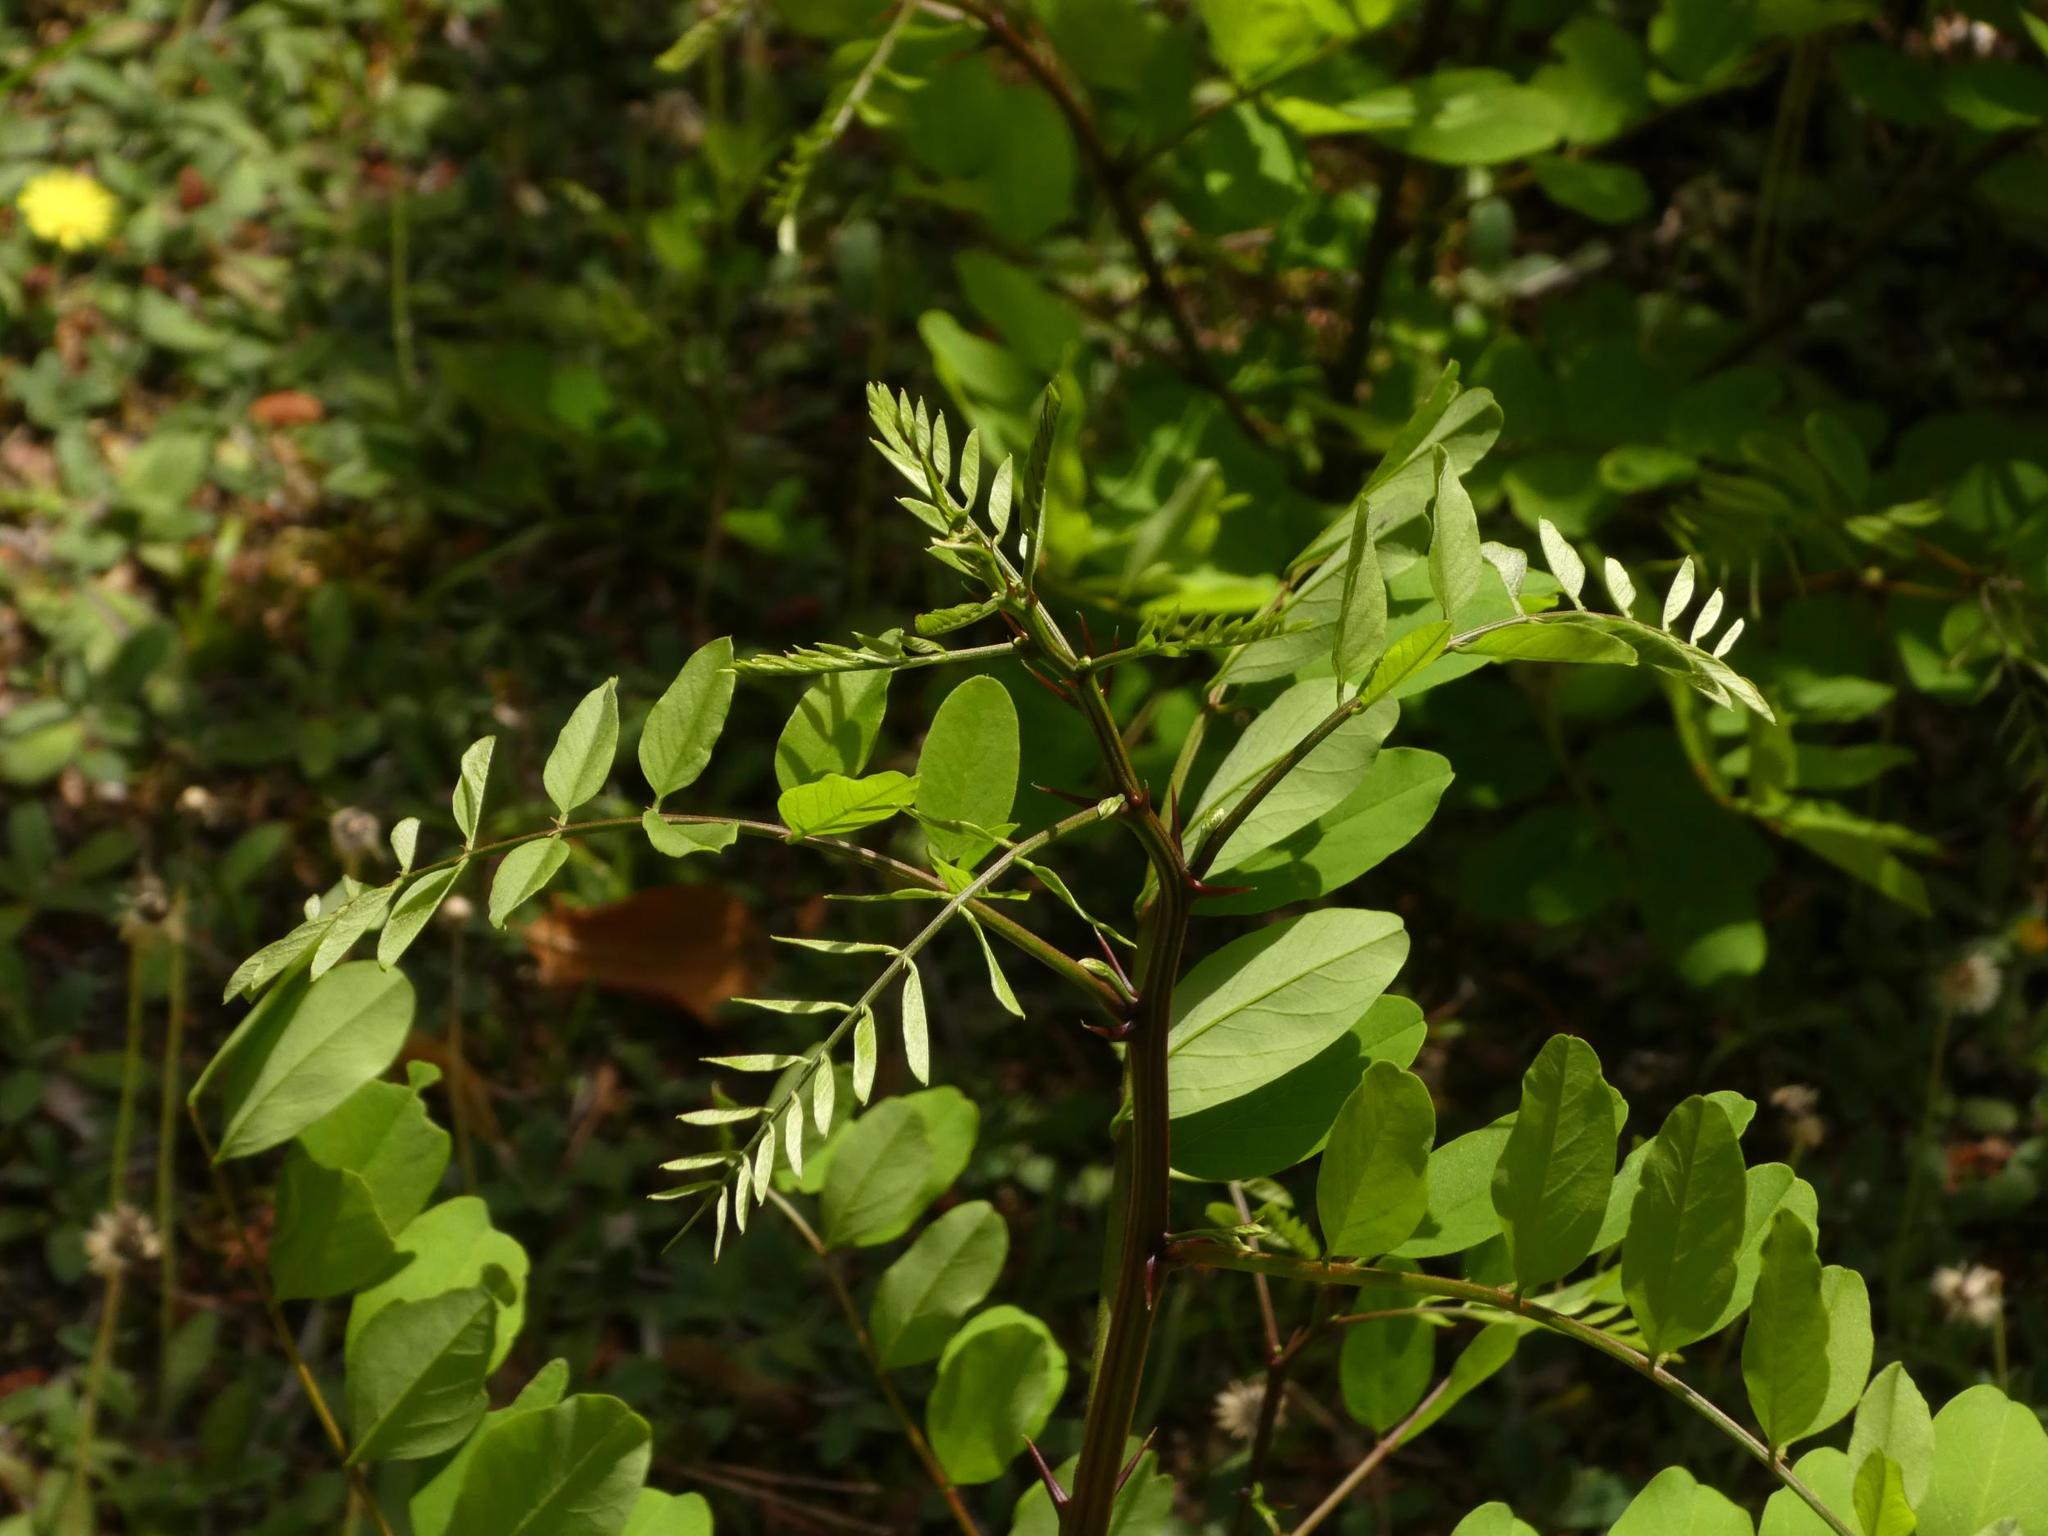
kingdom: Plantae
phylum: Tracheophyta
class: Magnoliopsida
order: Fabales
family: Fabaceae
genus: Robinia
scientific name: Robinia pseudoacacia
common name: Black locust
